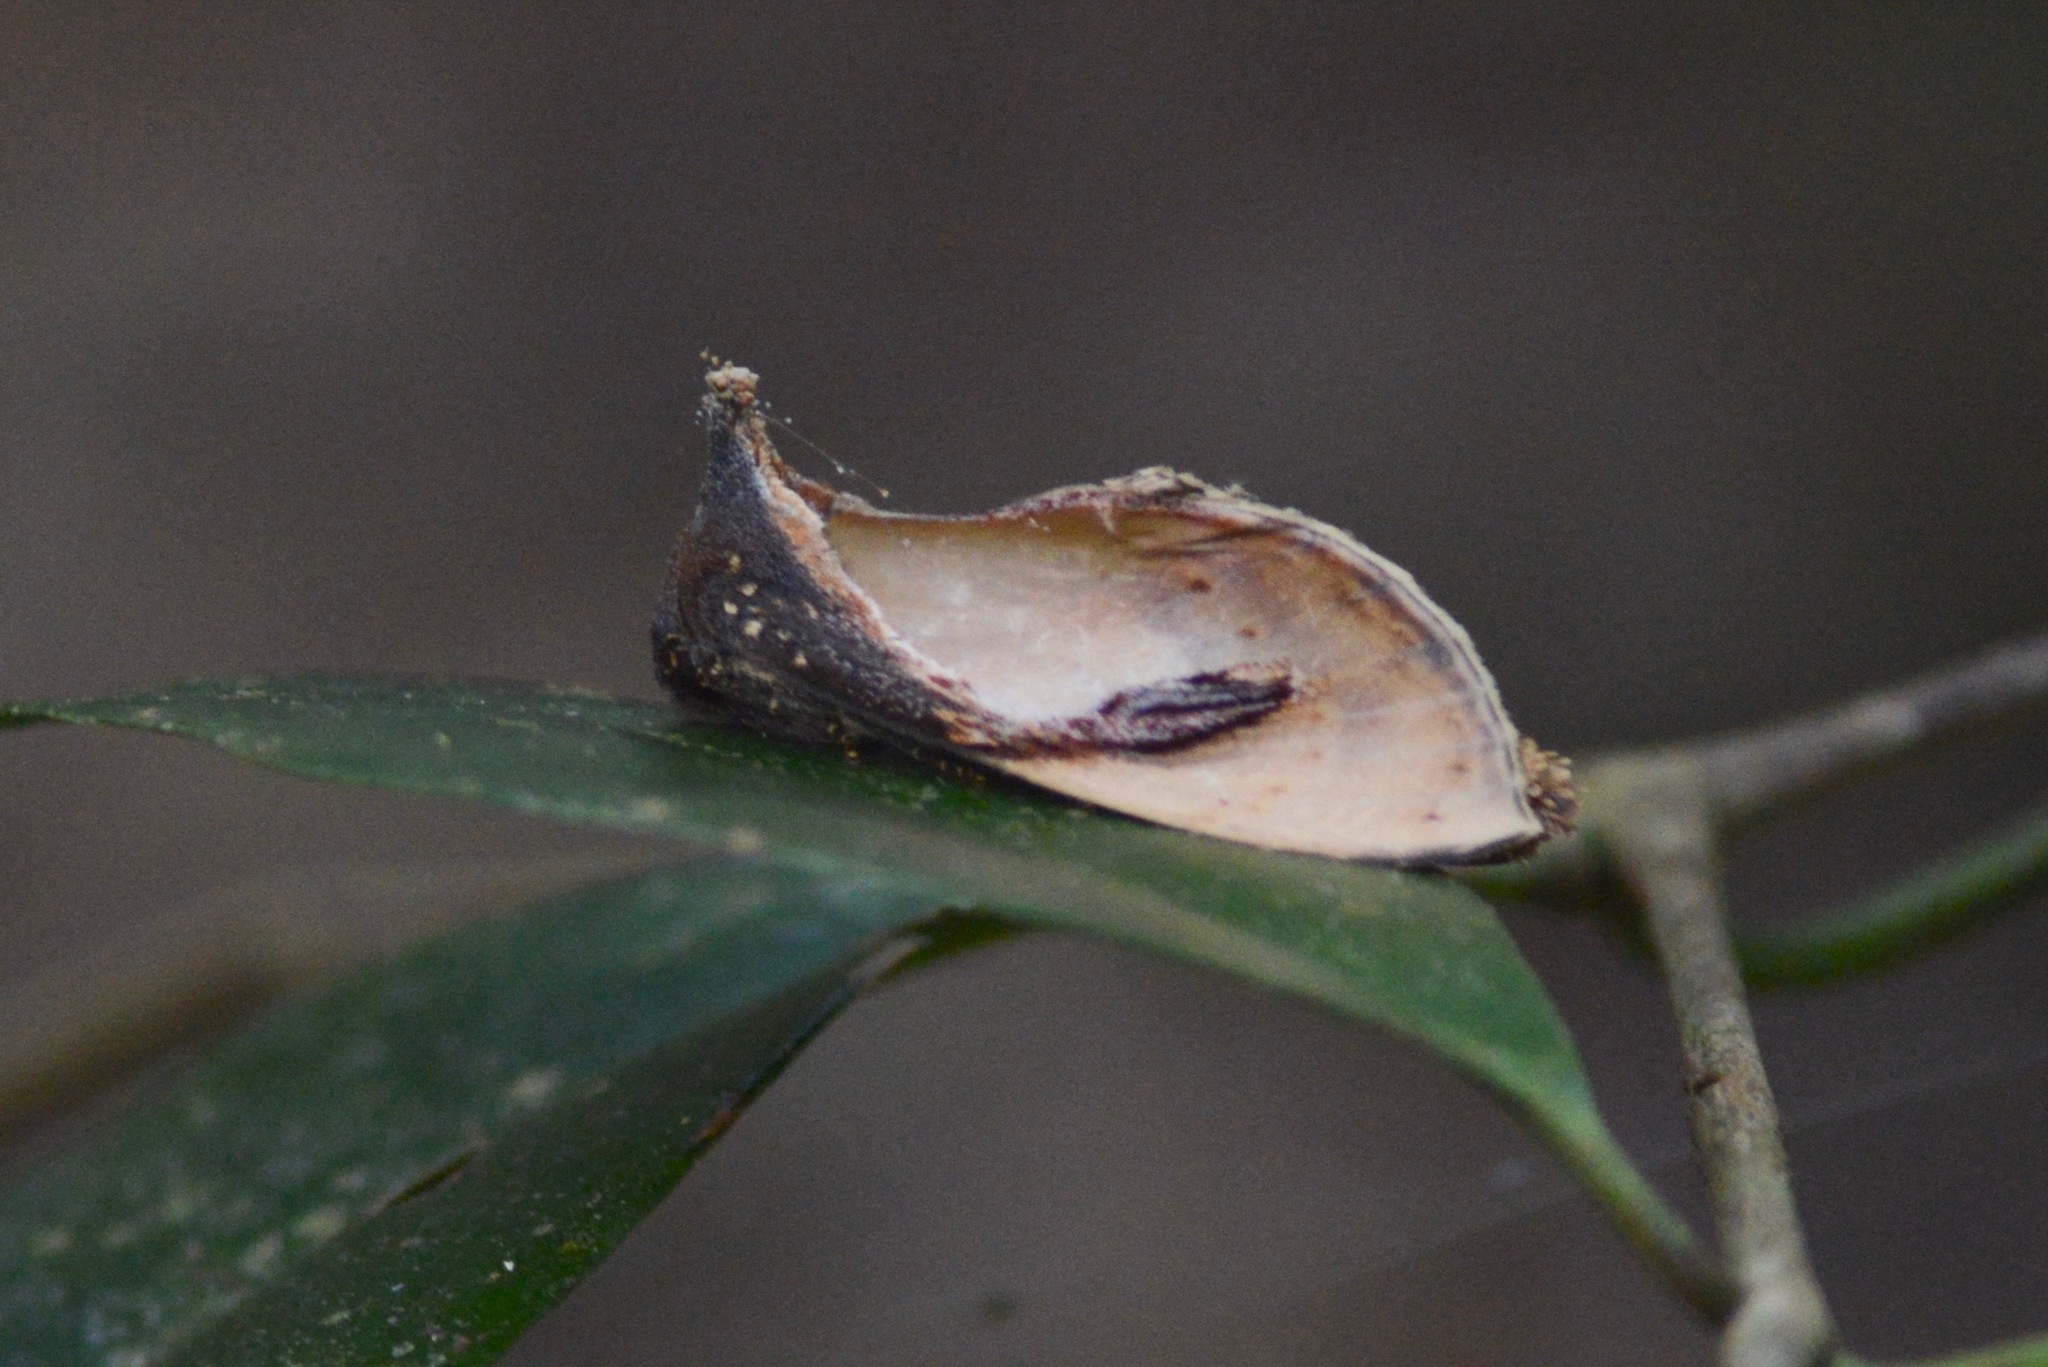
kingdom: Animalia
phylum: Arthropoda
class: Insecta
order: Lepidoptera
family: Notodontidae
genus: Crinodes
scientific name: Crinodes bellatrix
